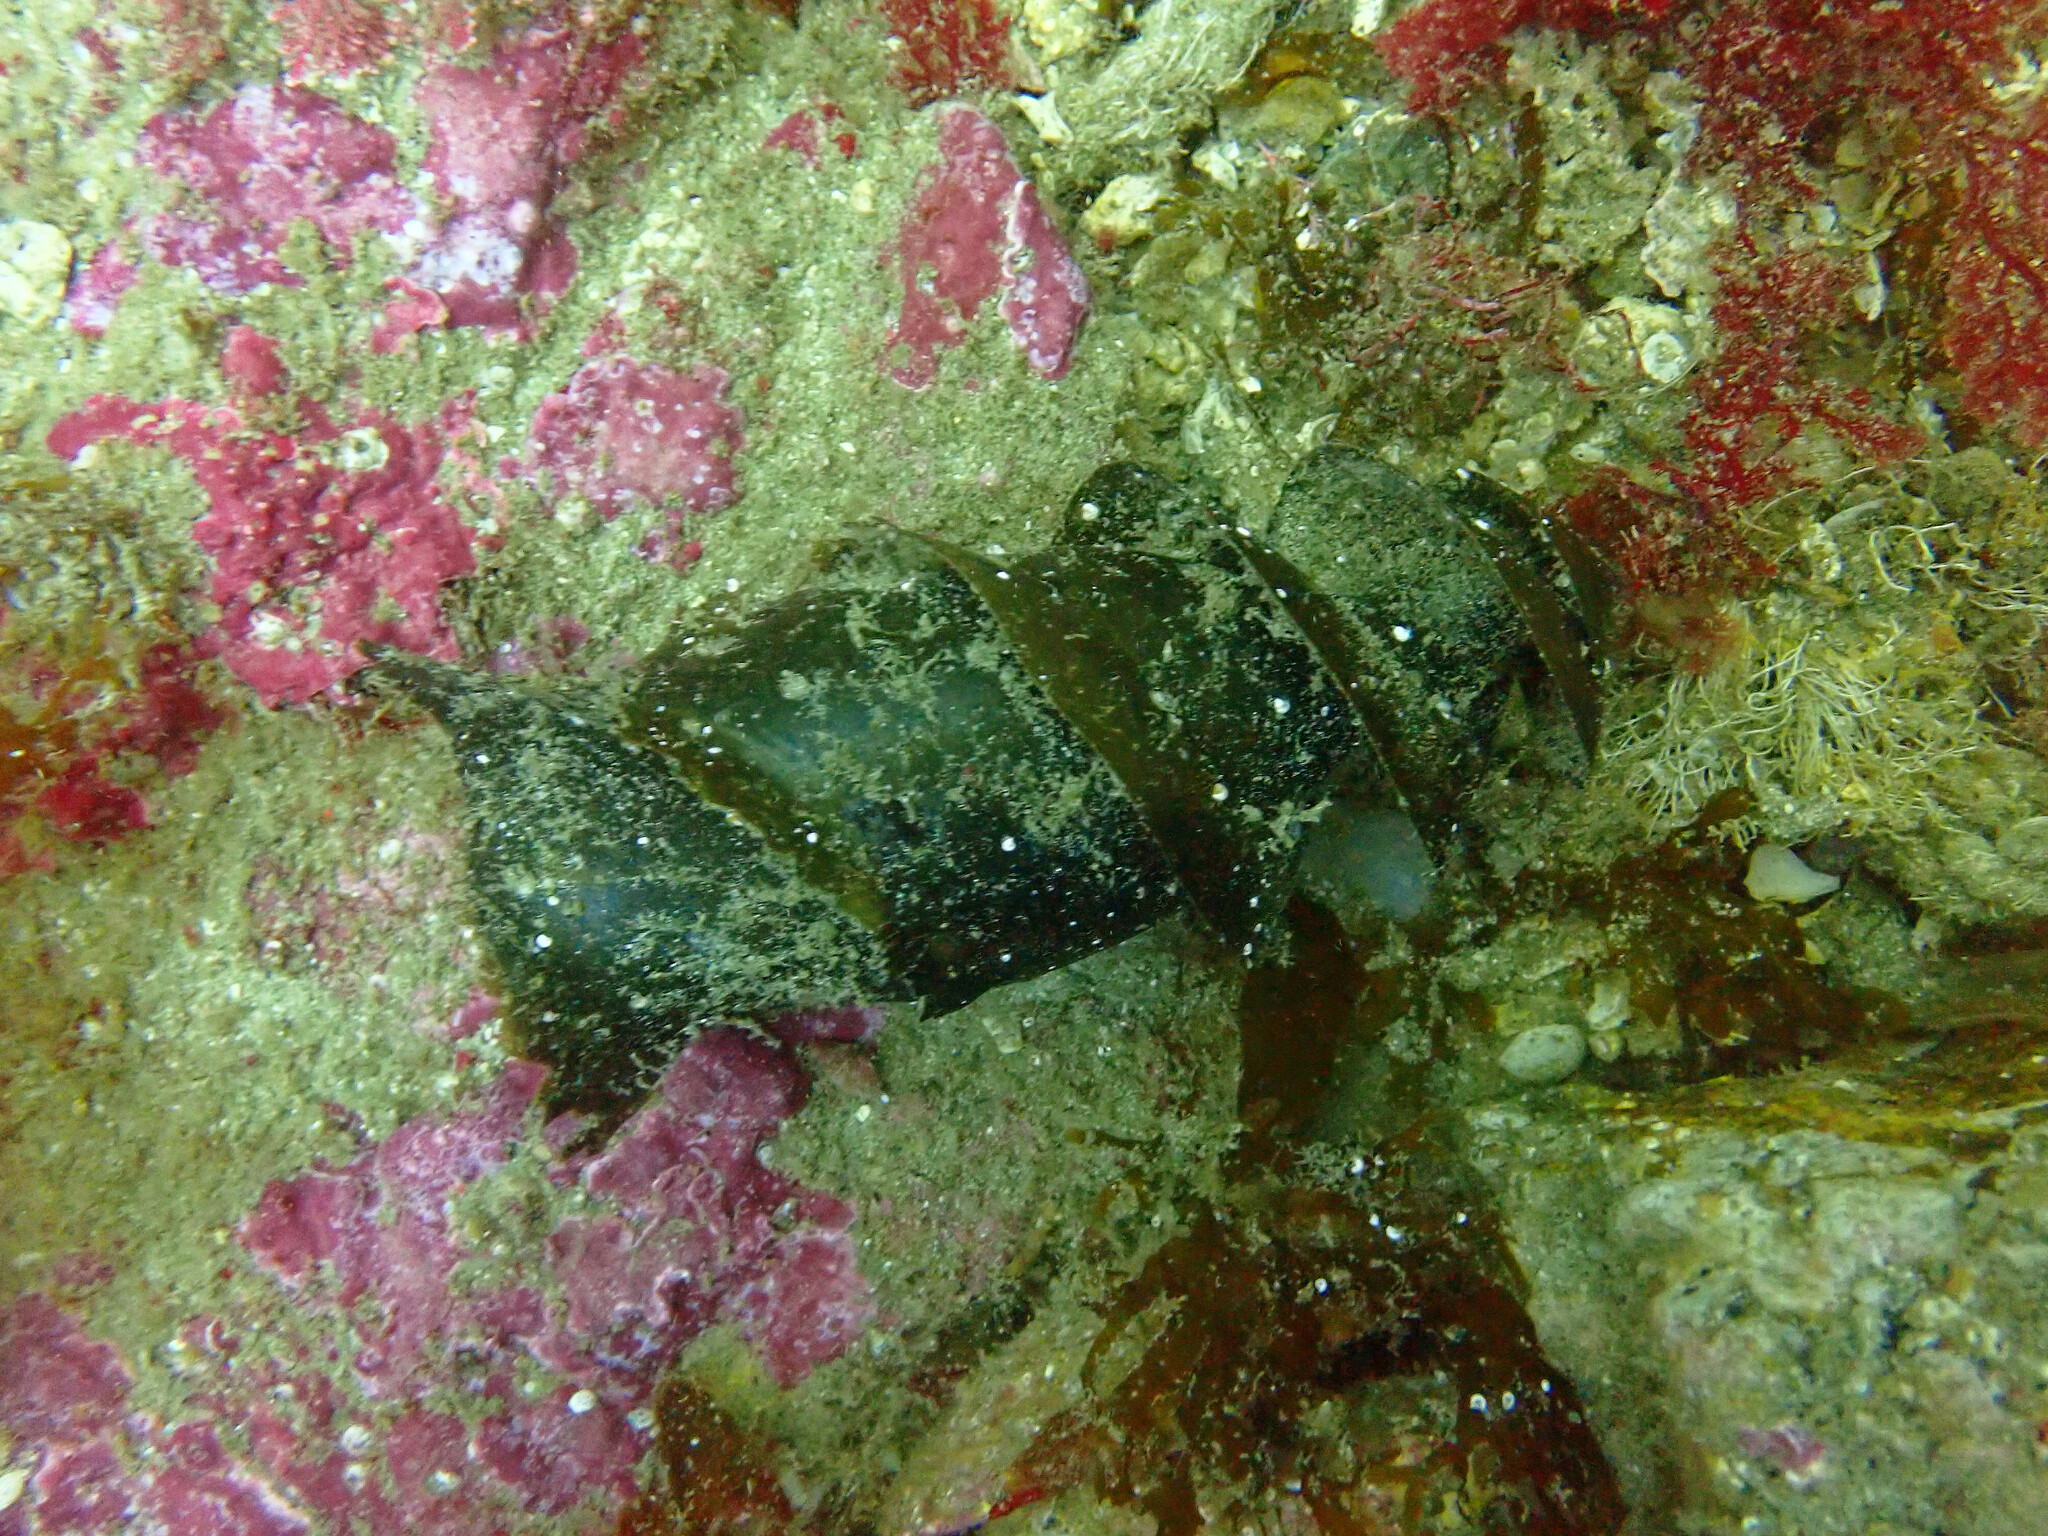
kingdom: Animalia
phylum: Chordata
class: Elasmobranchii
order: Heterodontiformes
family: Heterodontidae
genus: Heterodontus
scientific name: Heterodontus francisci
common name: Horn shark
